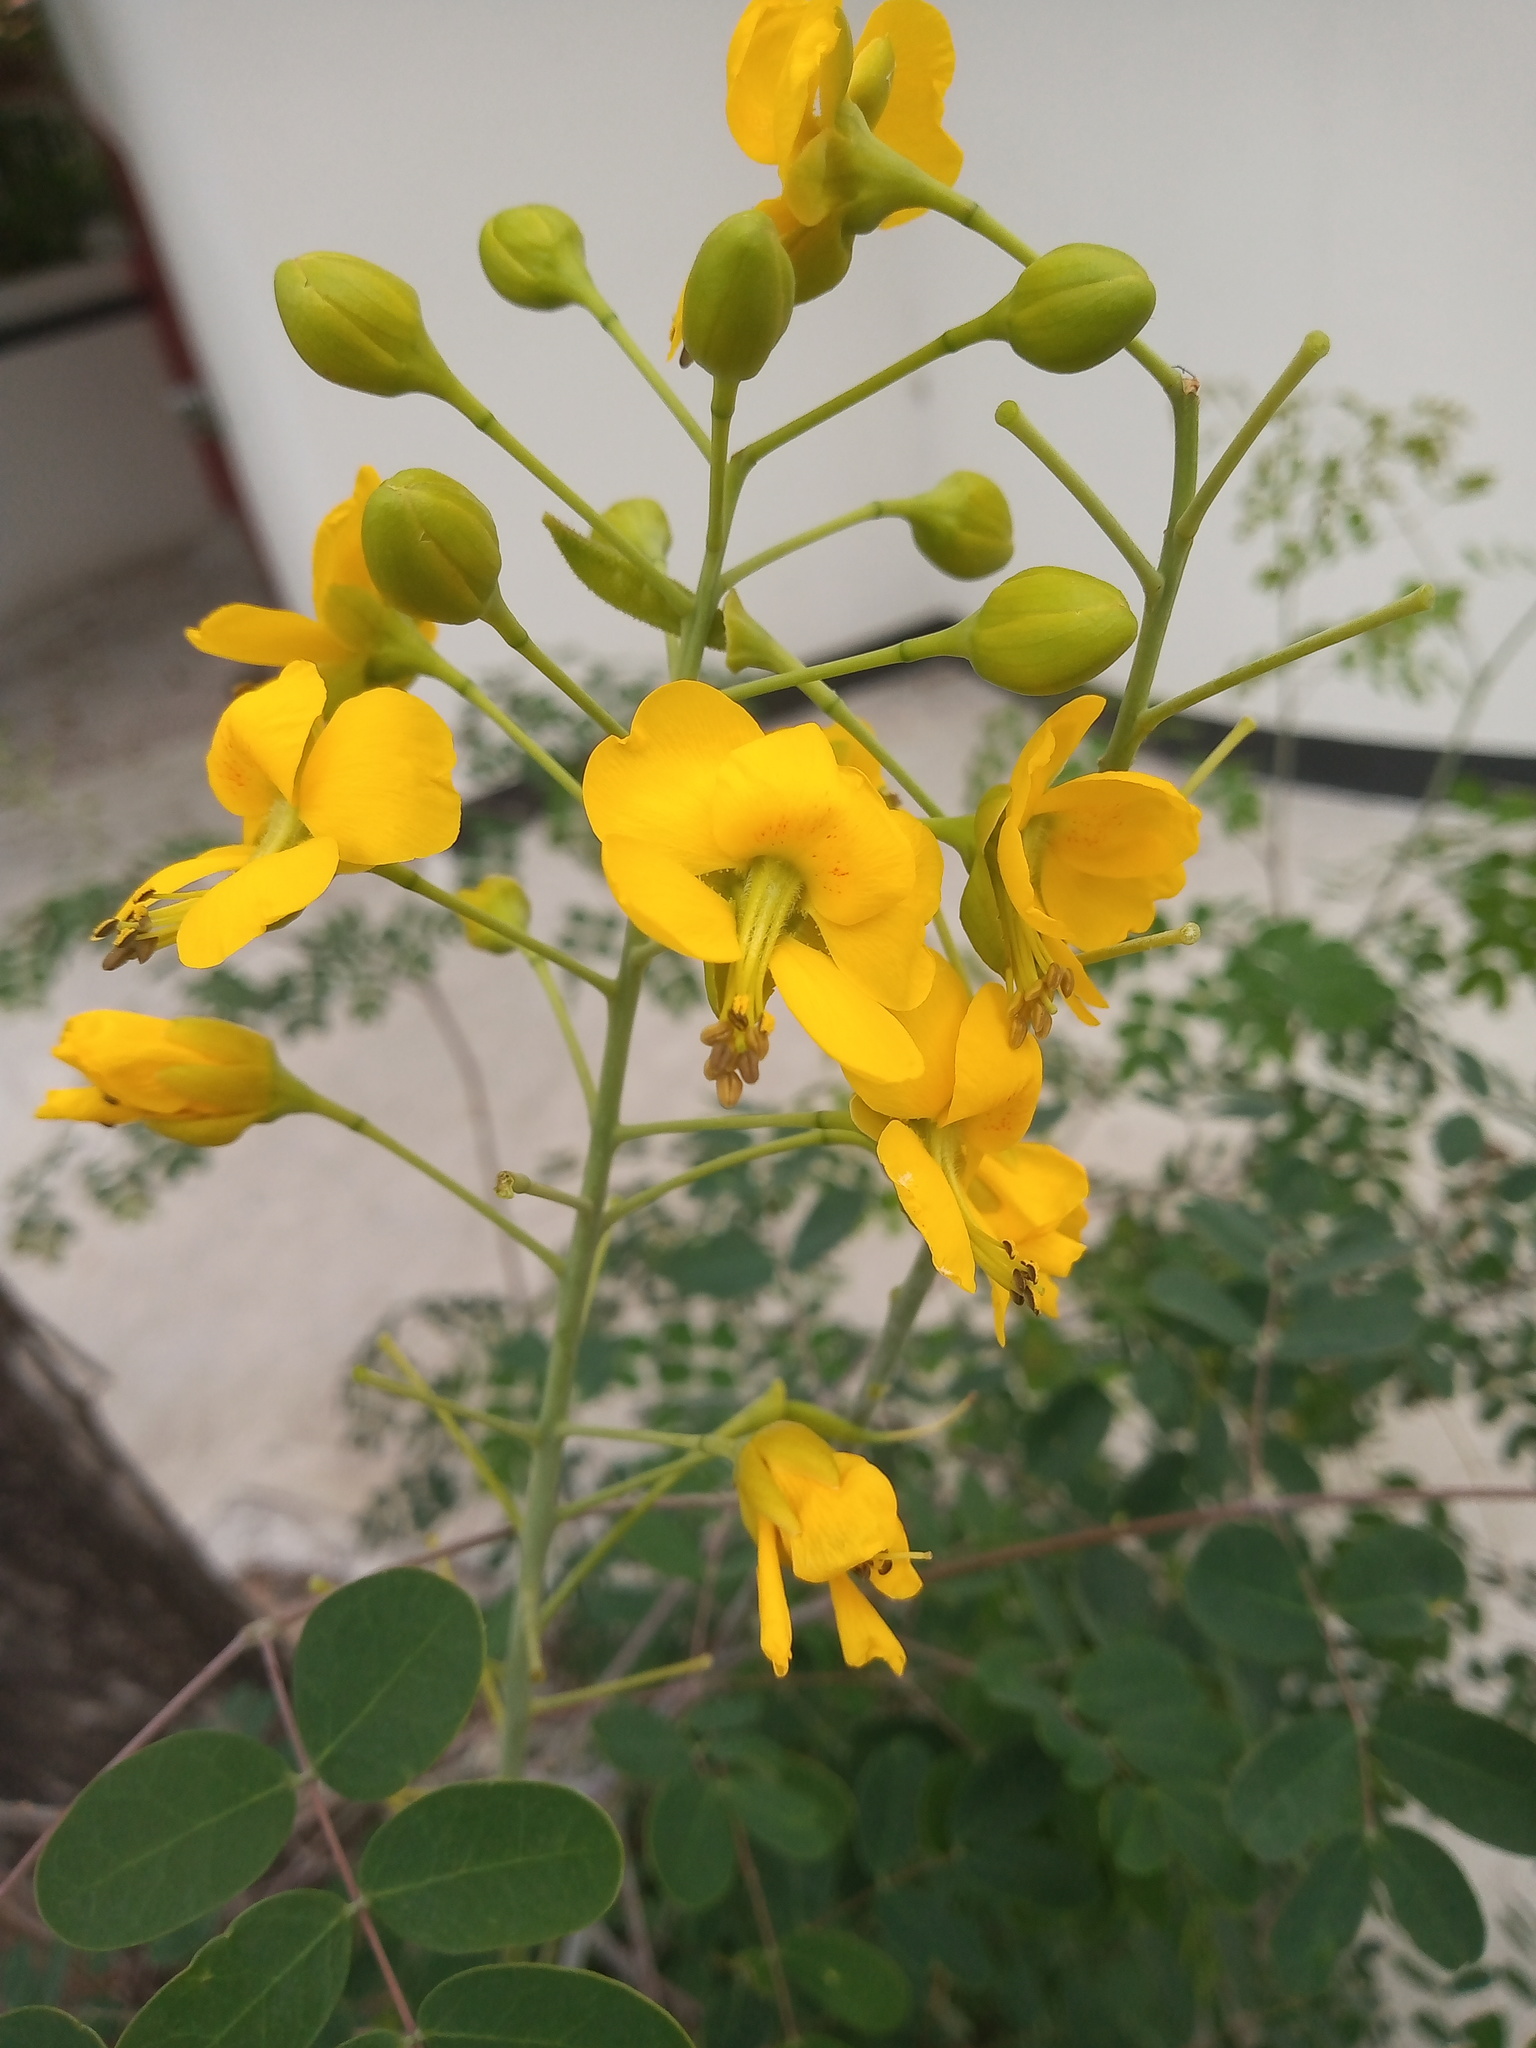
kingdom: Plantae
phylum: Tracheophyta
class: Magnoliopsida
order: Fabales
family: Fabaceae
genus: Erythrostemon
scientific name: Erythrostemon mexicanus
